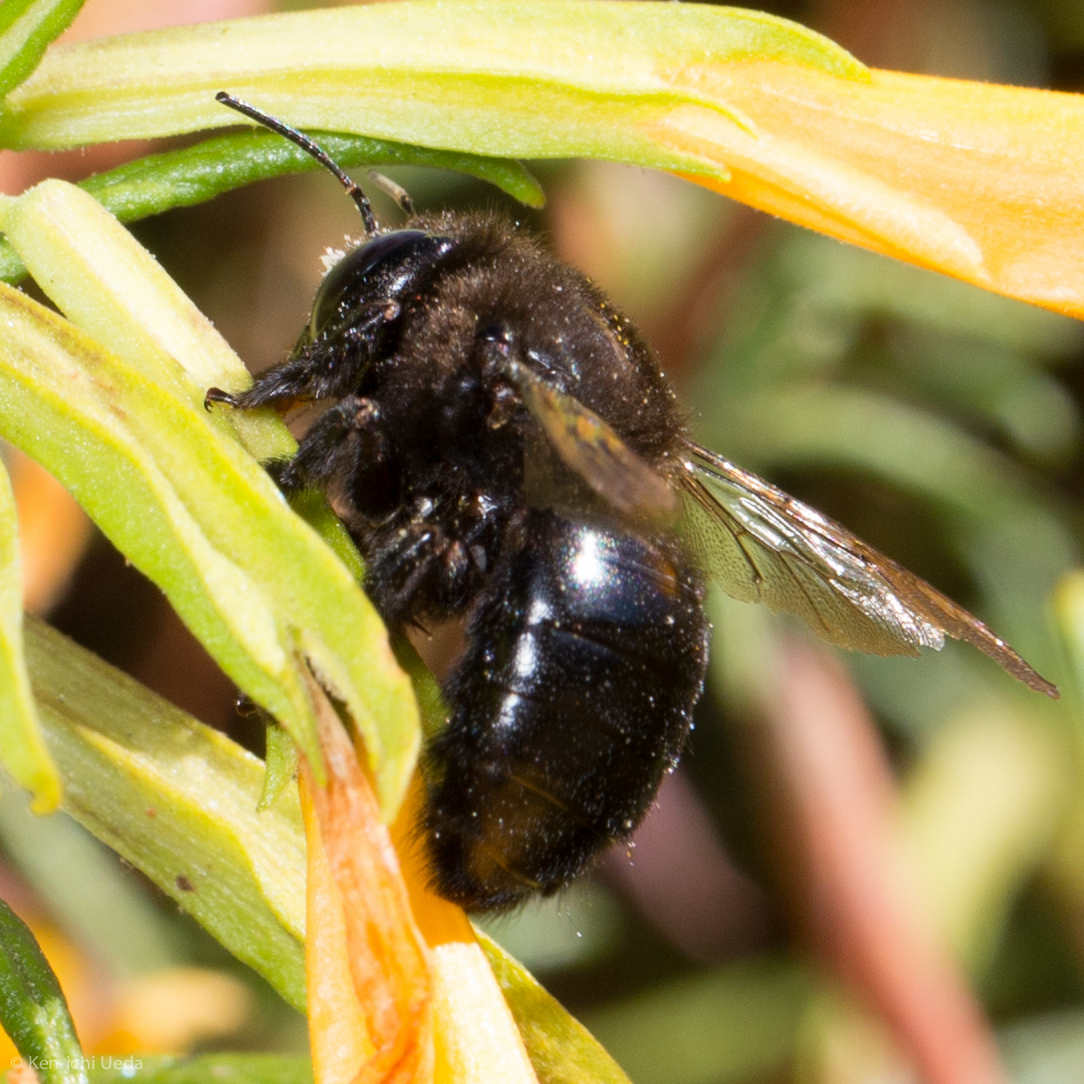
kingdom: Animalia
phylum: Arthropoda
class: Insecta
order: Hymenoptera
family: Apidae
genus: Xylocopa
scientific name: Xylocopa tabaniformis
